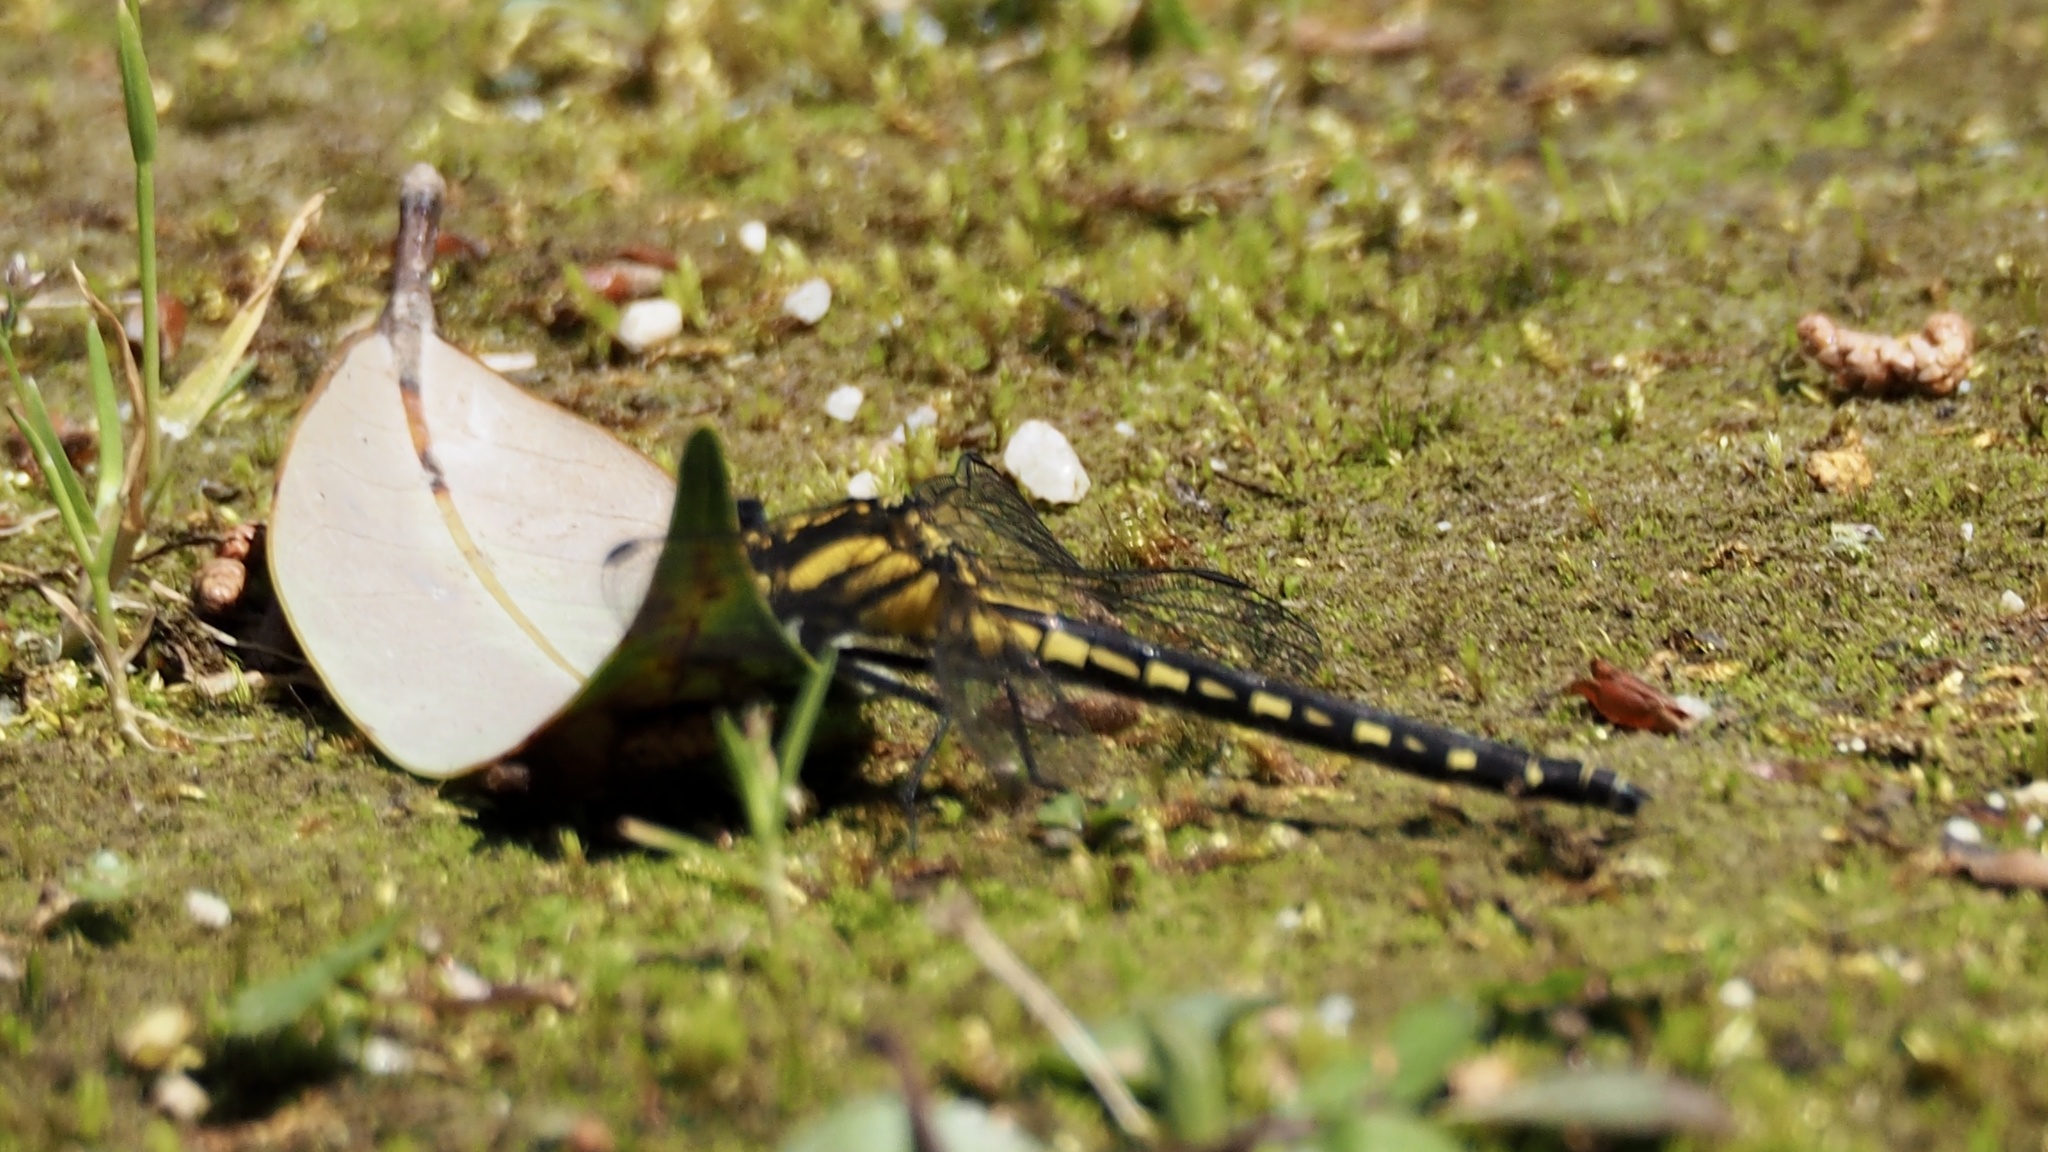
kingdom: Animalia
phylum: Arthropoda
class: Insecta
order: Odonata
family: Gomphidae
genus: Davidius
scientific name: Davidius nanus
